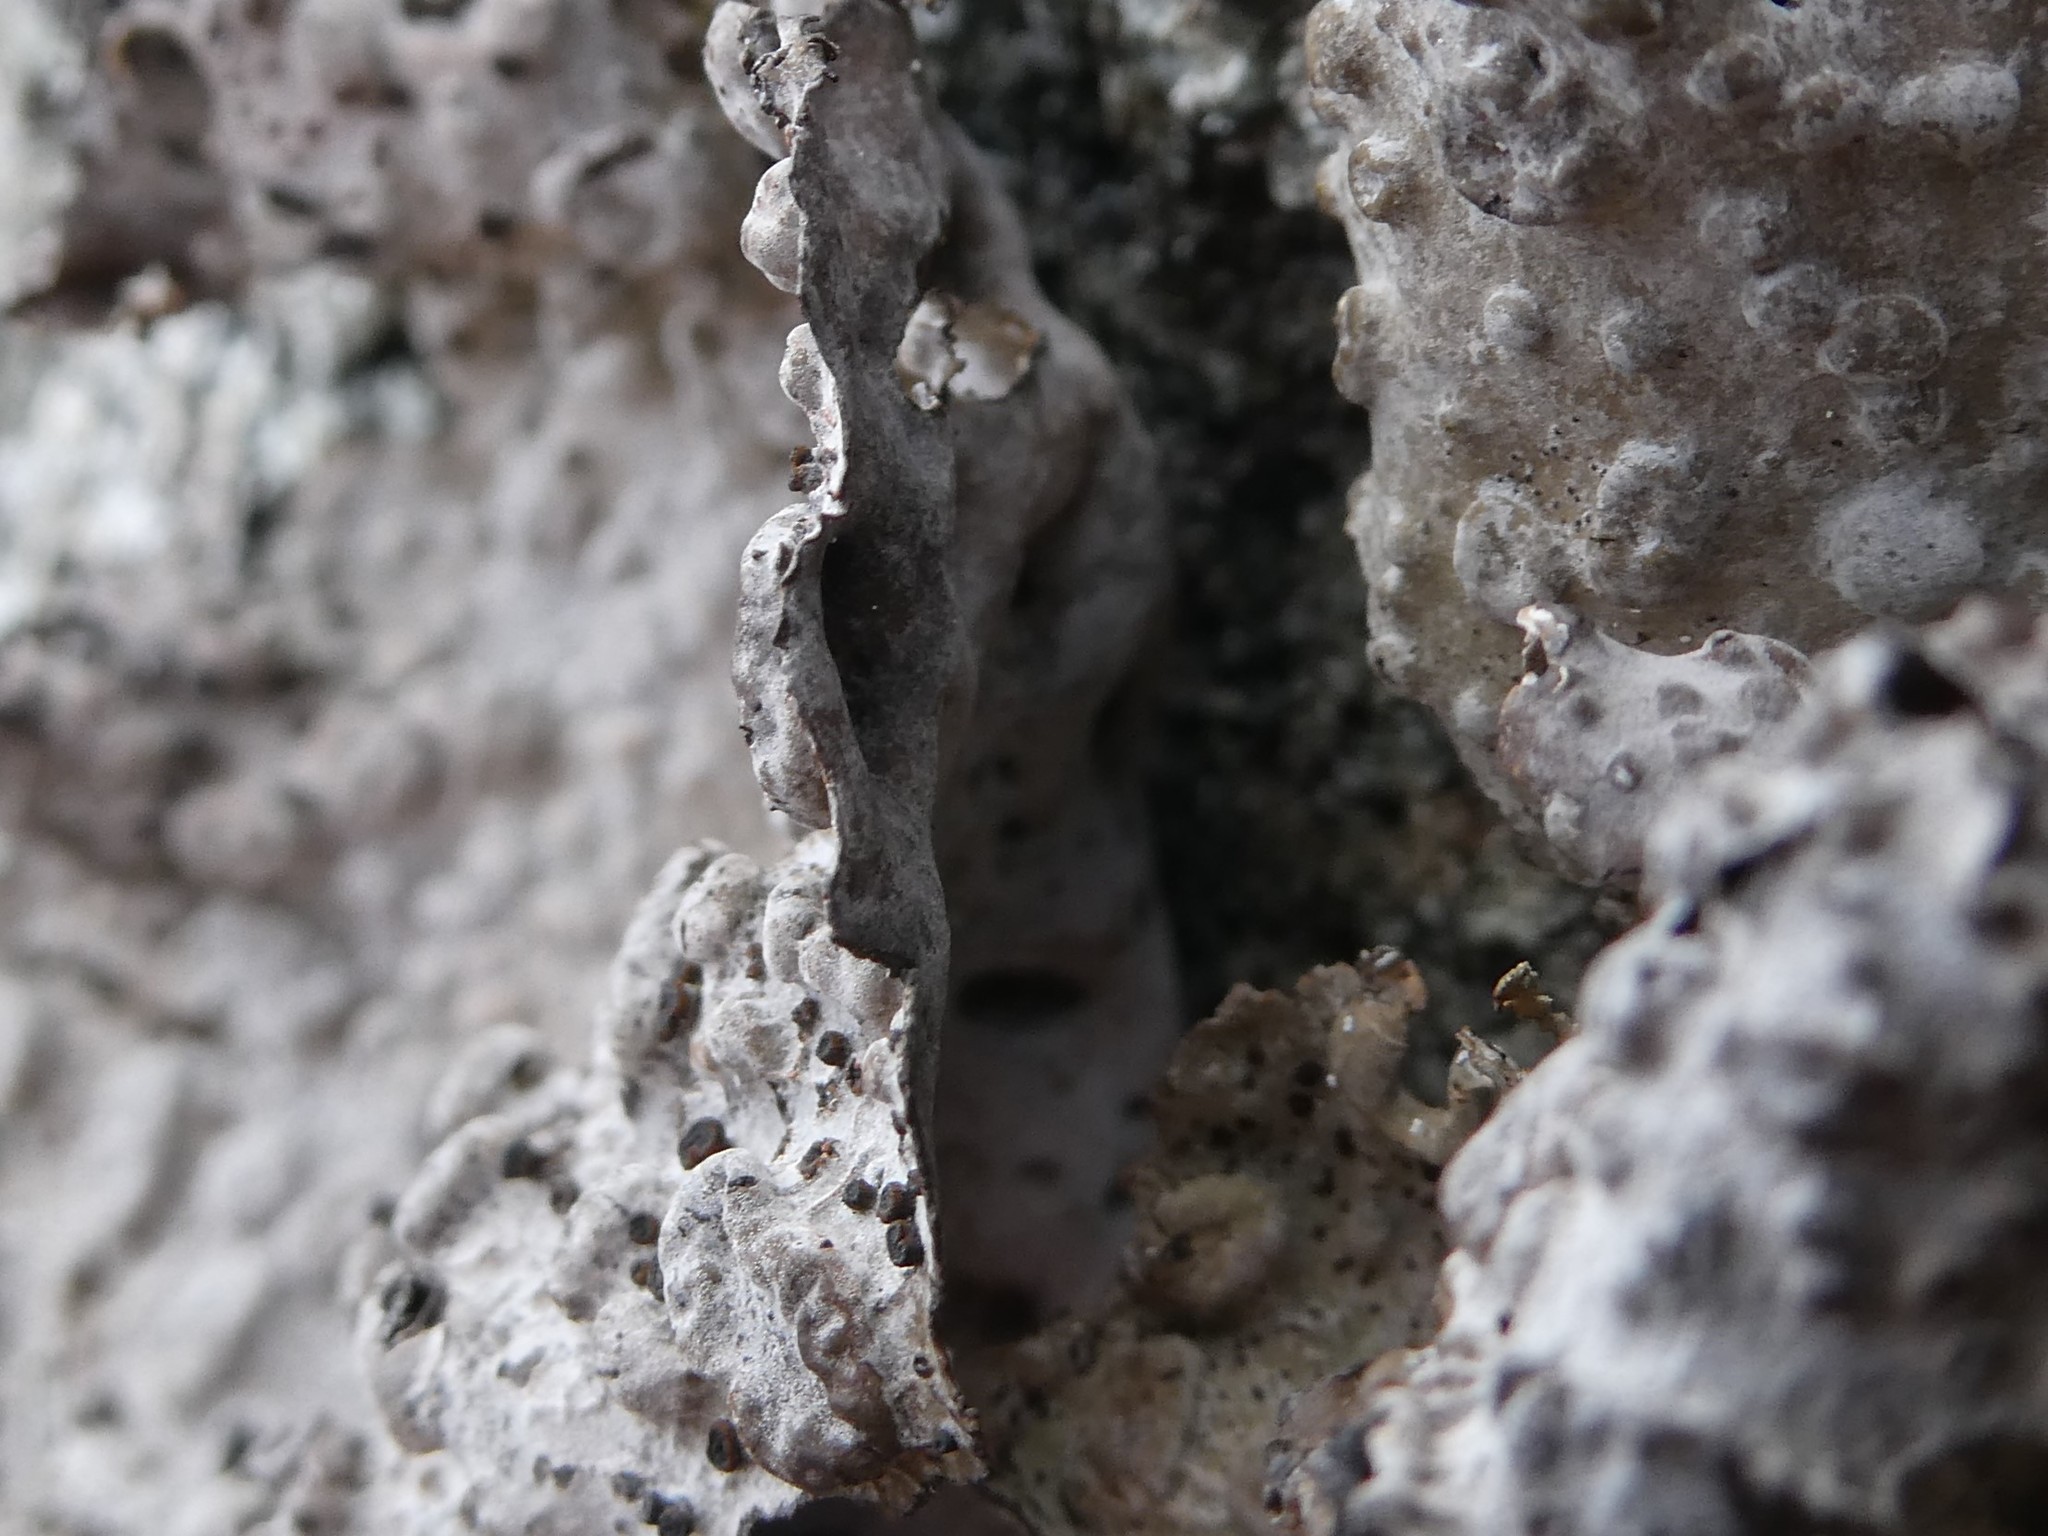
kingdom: Fungi
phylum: Ascomycota
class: Lecanoromycetes
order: Umbilicariales
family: Umbilicariaceae
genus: Lasallia
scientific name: Lasallia papulosa
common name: Common toadskin lichen
